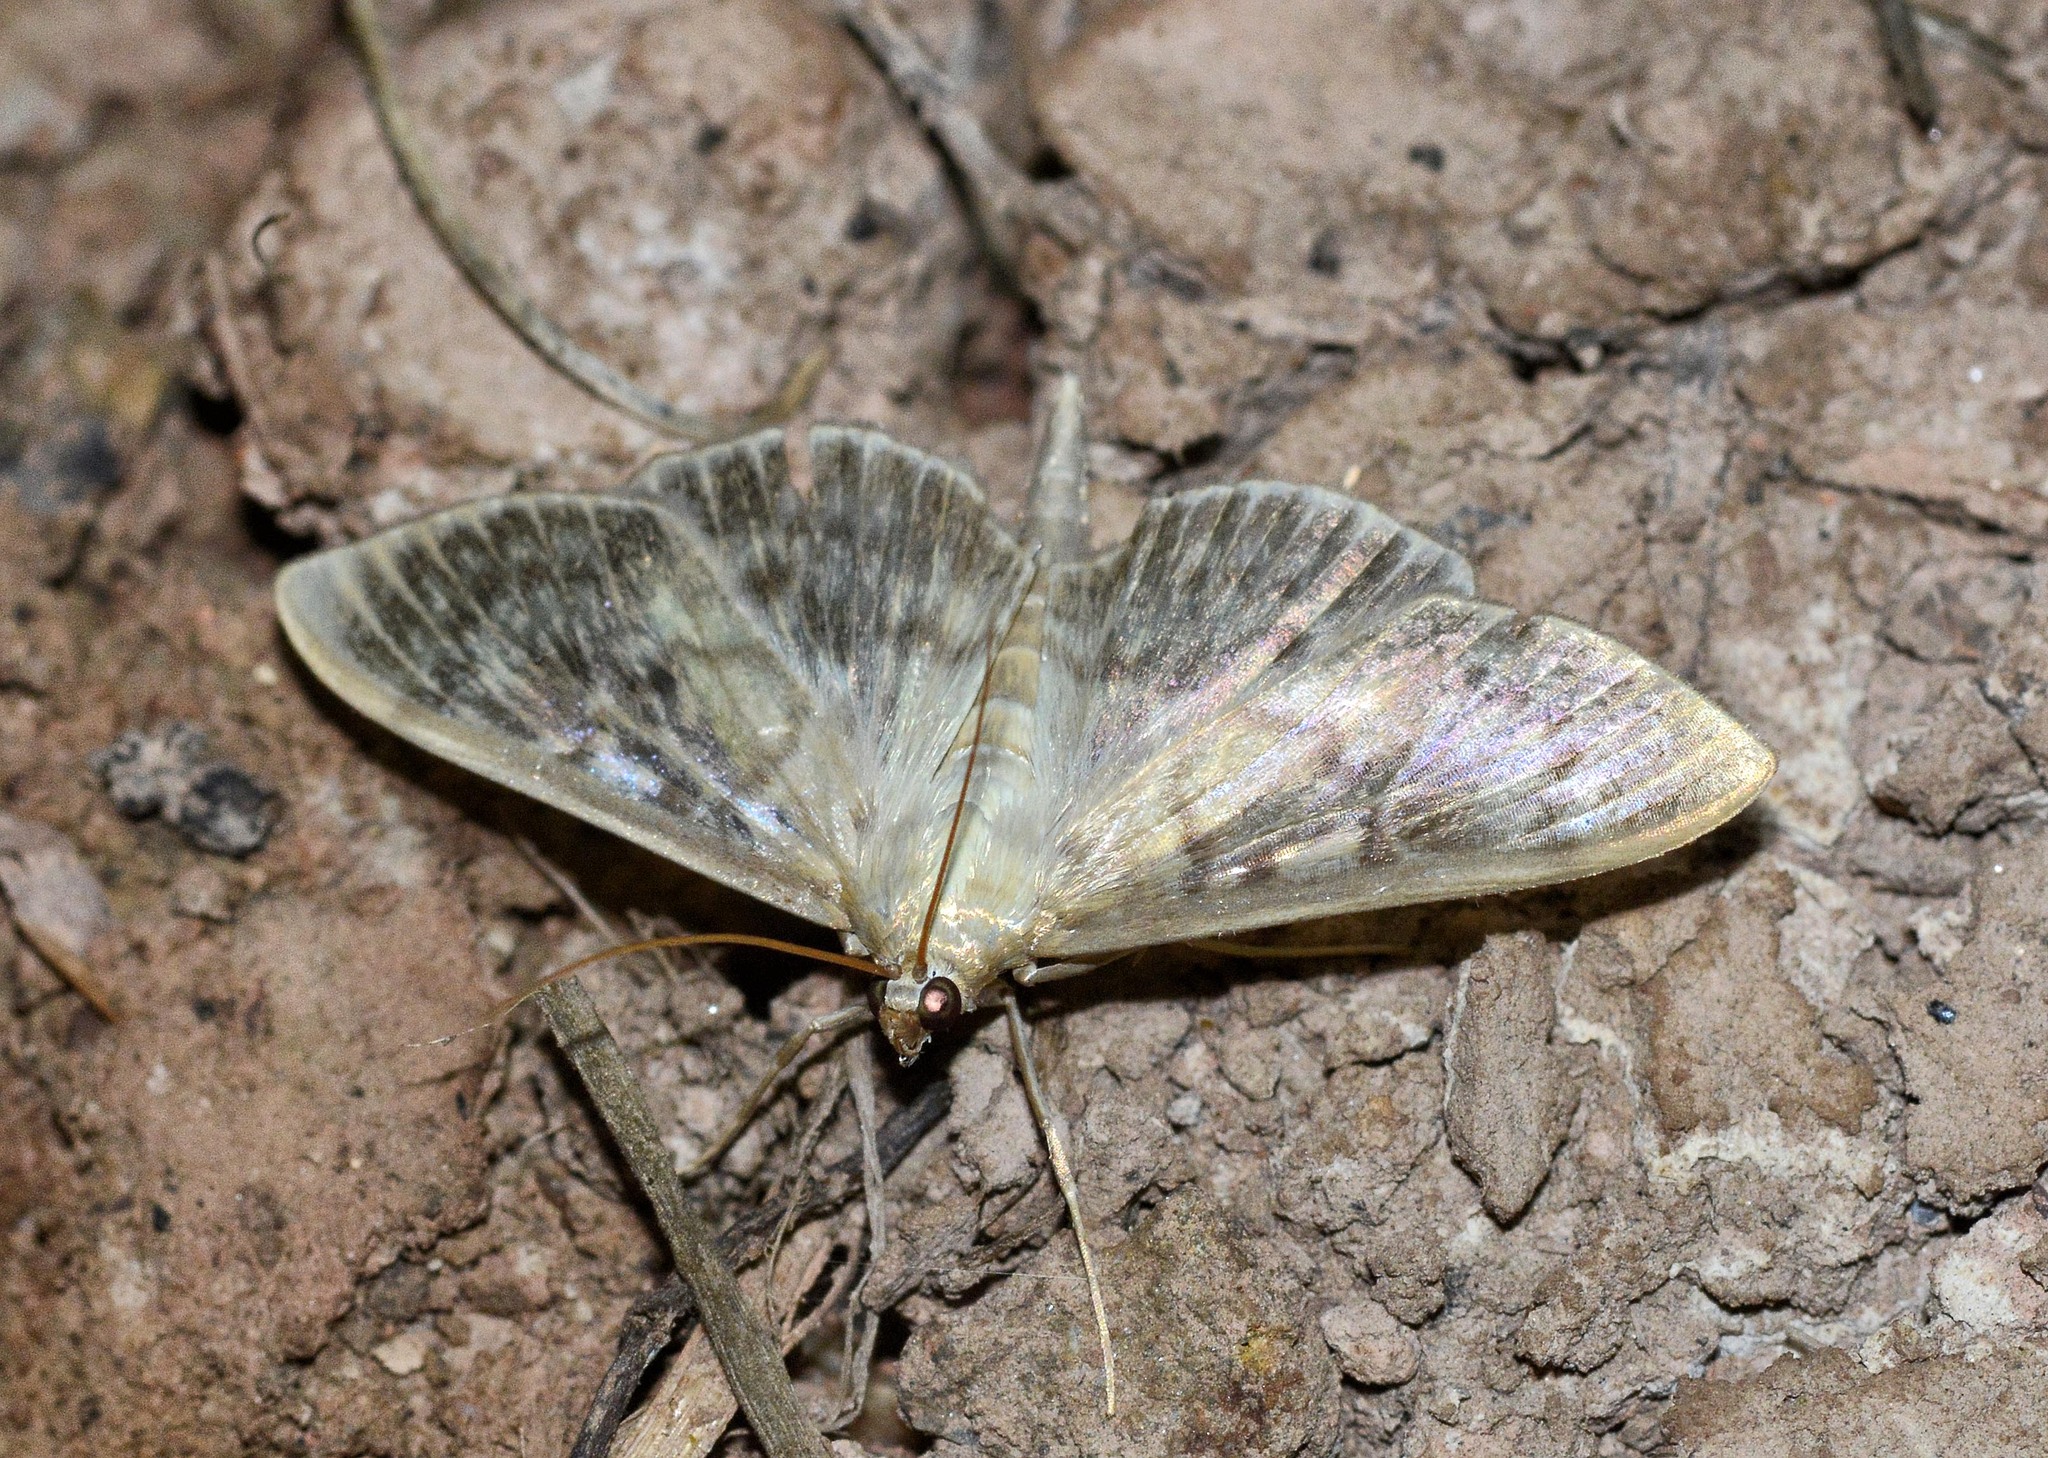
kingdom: Animalia
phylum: Arthropoda
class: Insecta
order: Lepidoptera
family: Crambidae
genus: Patania
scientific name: Patania ruralis
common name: Mother of pearl
